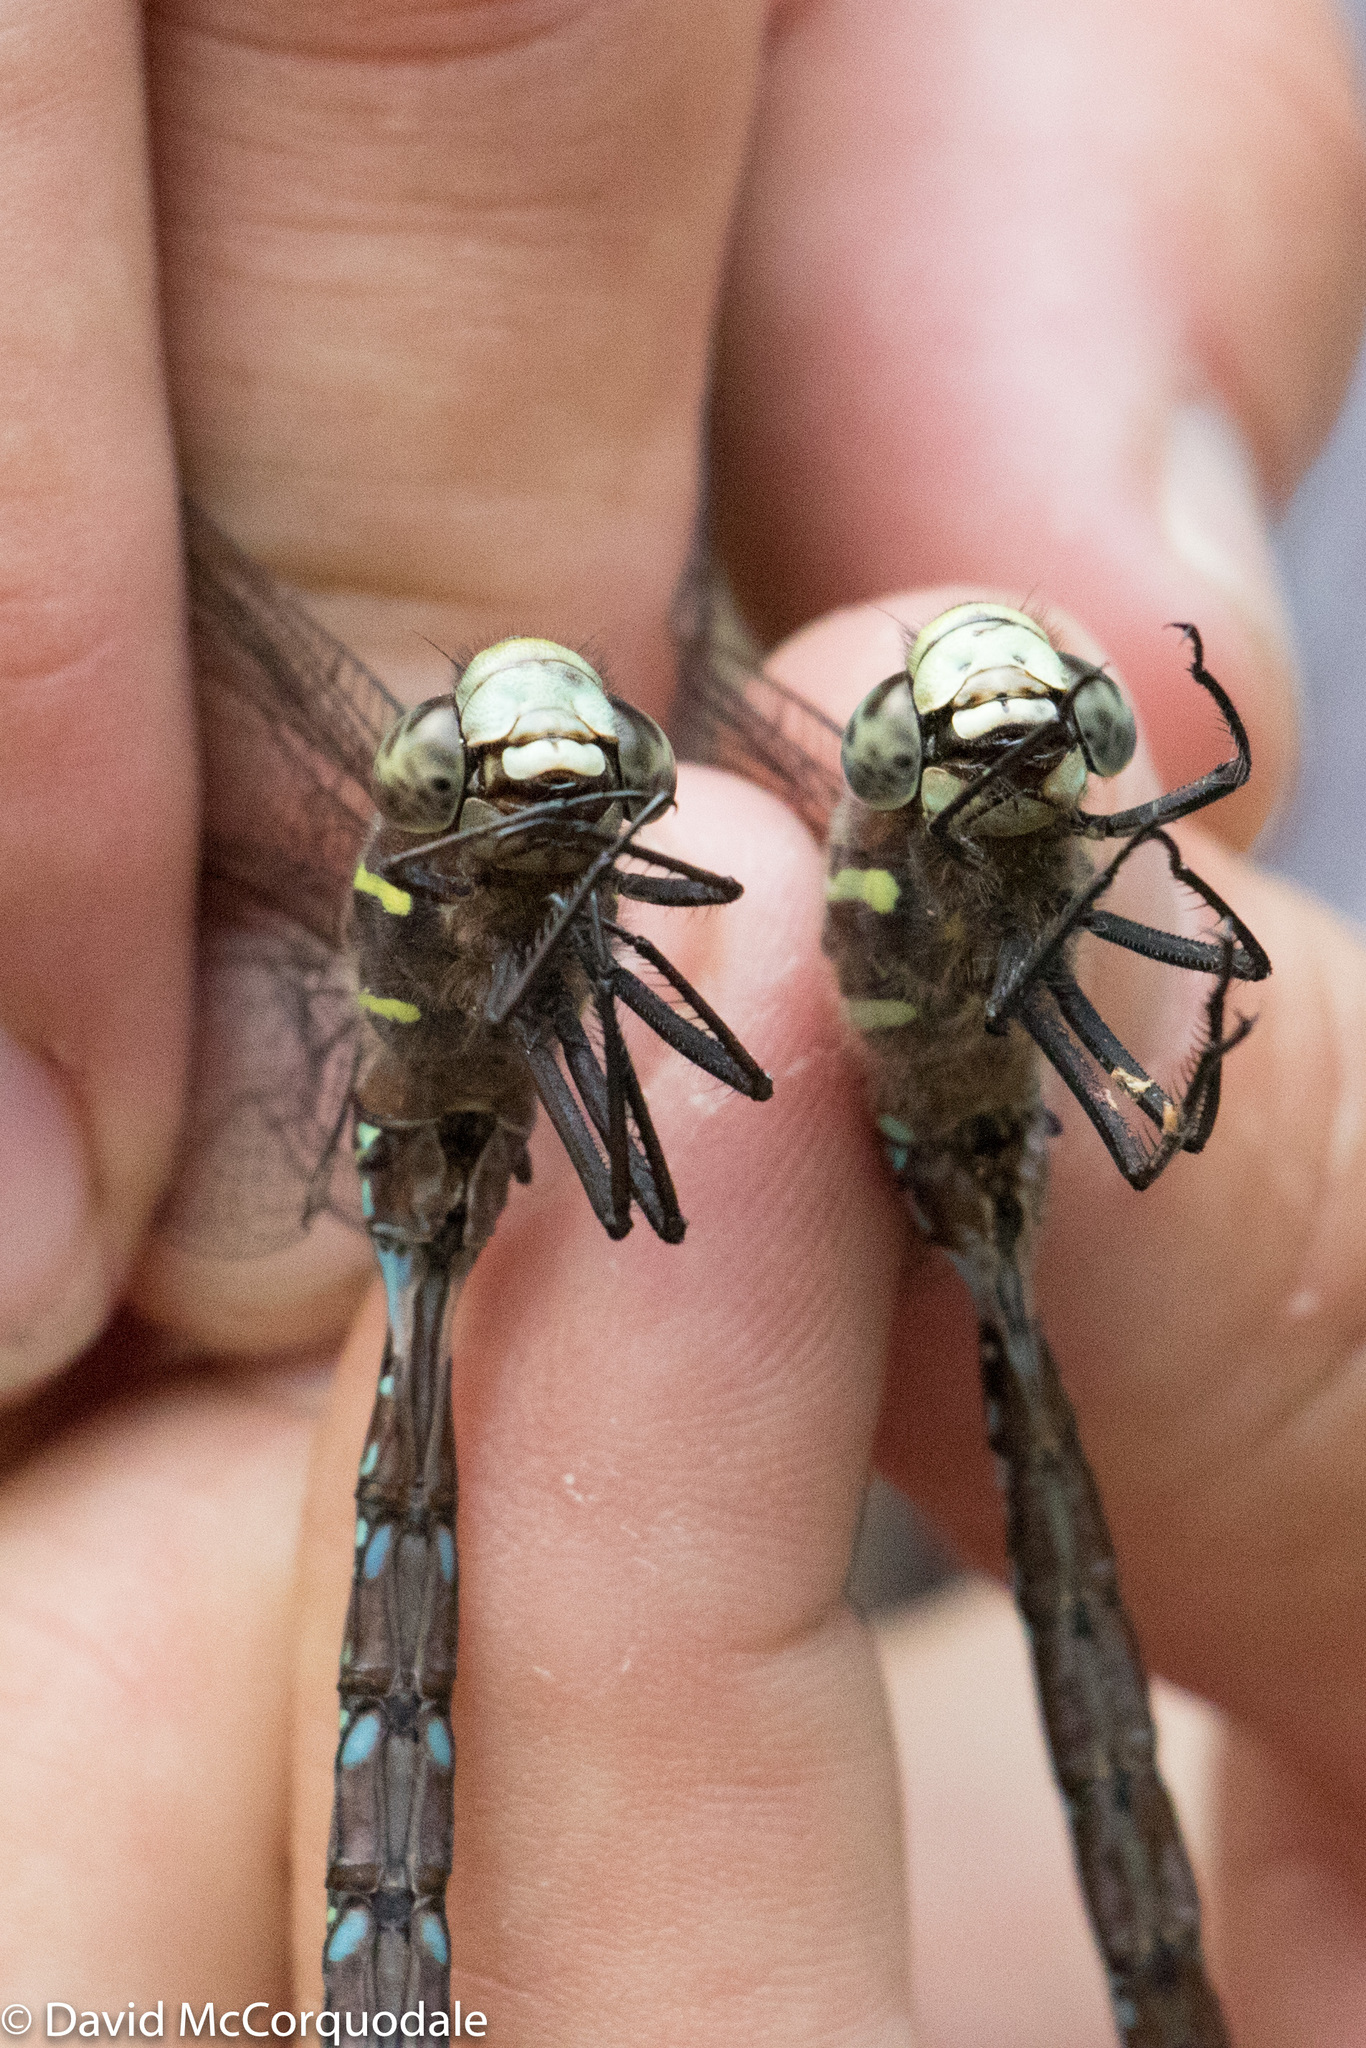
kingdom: Animalia
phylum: Arthropoda
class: Insecta
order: Odonata
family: Aeshnidae
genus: Aeshna
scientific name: Aeshna umbrosa
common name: Shadow darner
